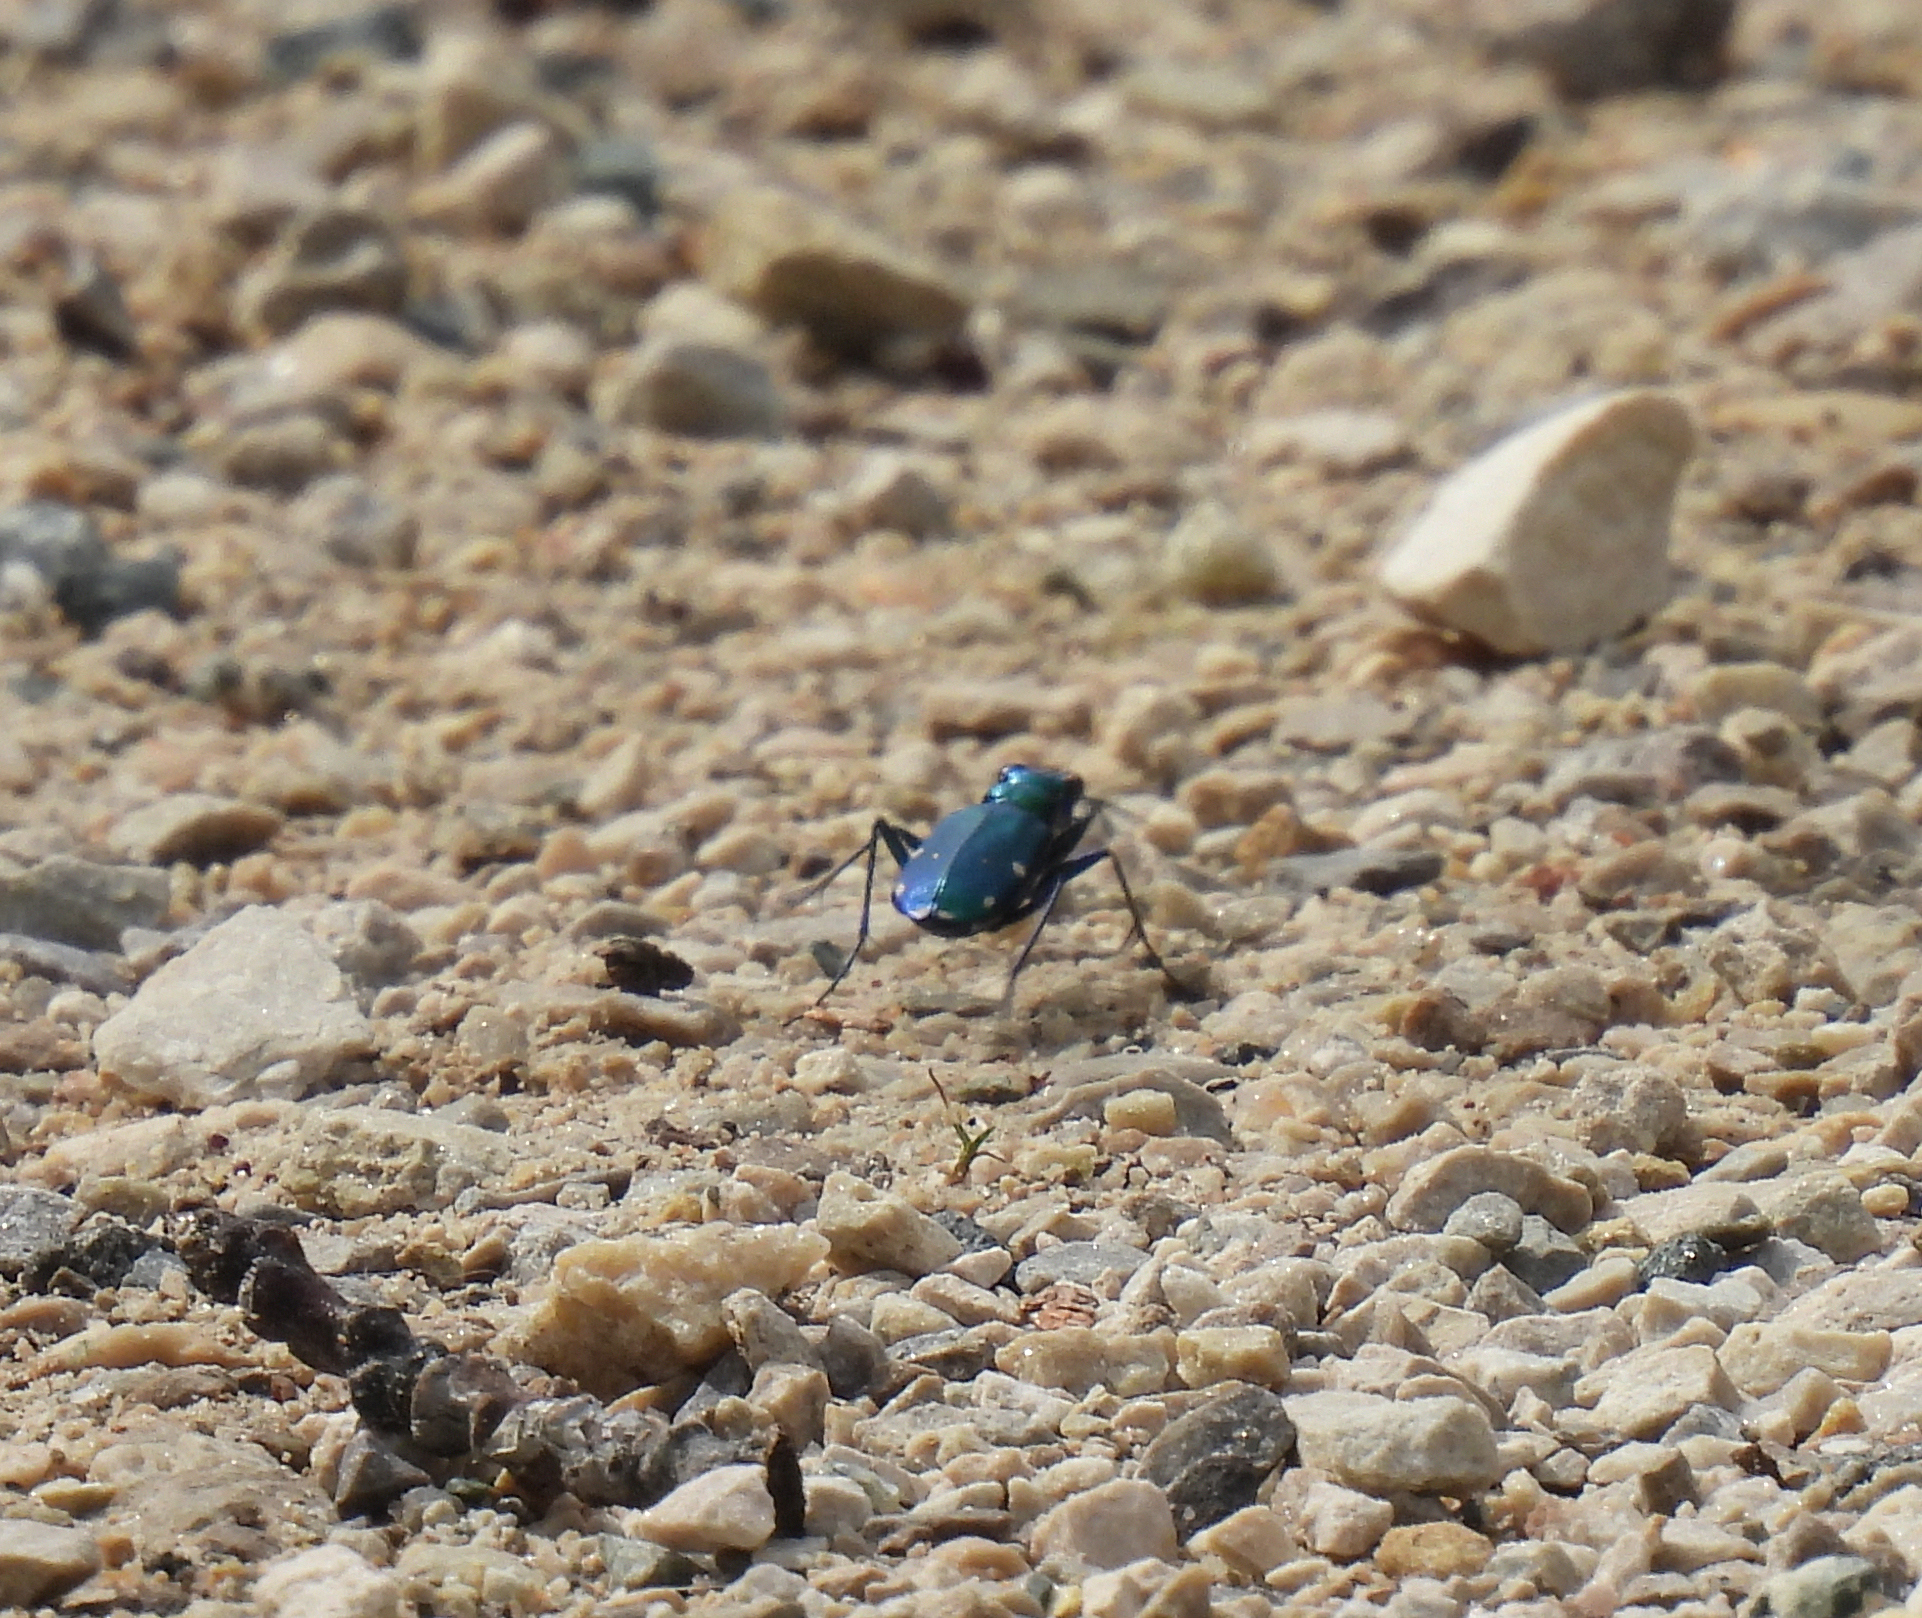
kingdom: Animalia
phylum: Arthropoda
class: Insecta
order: Coleoptera
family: Carabidae
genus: Cicindela
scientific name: Cicindela sexguttata
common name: Six-spotted tiger beetle
